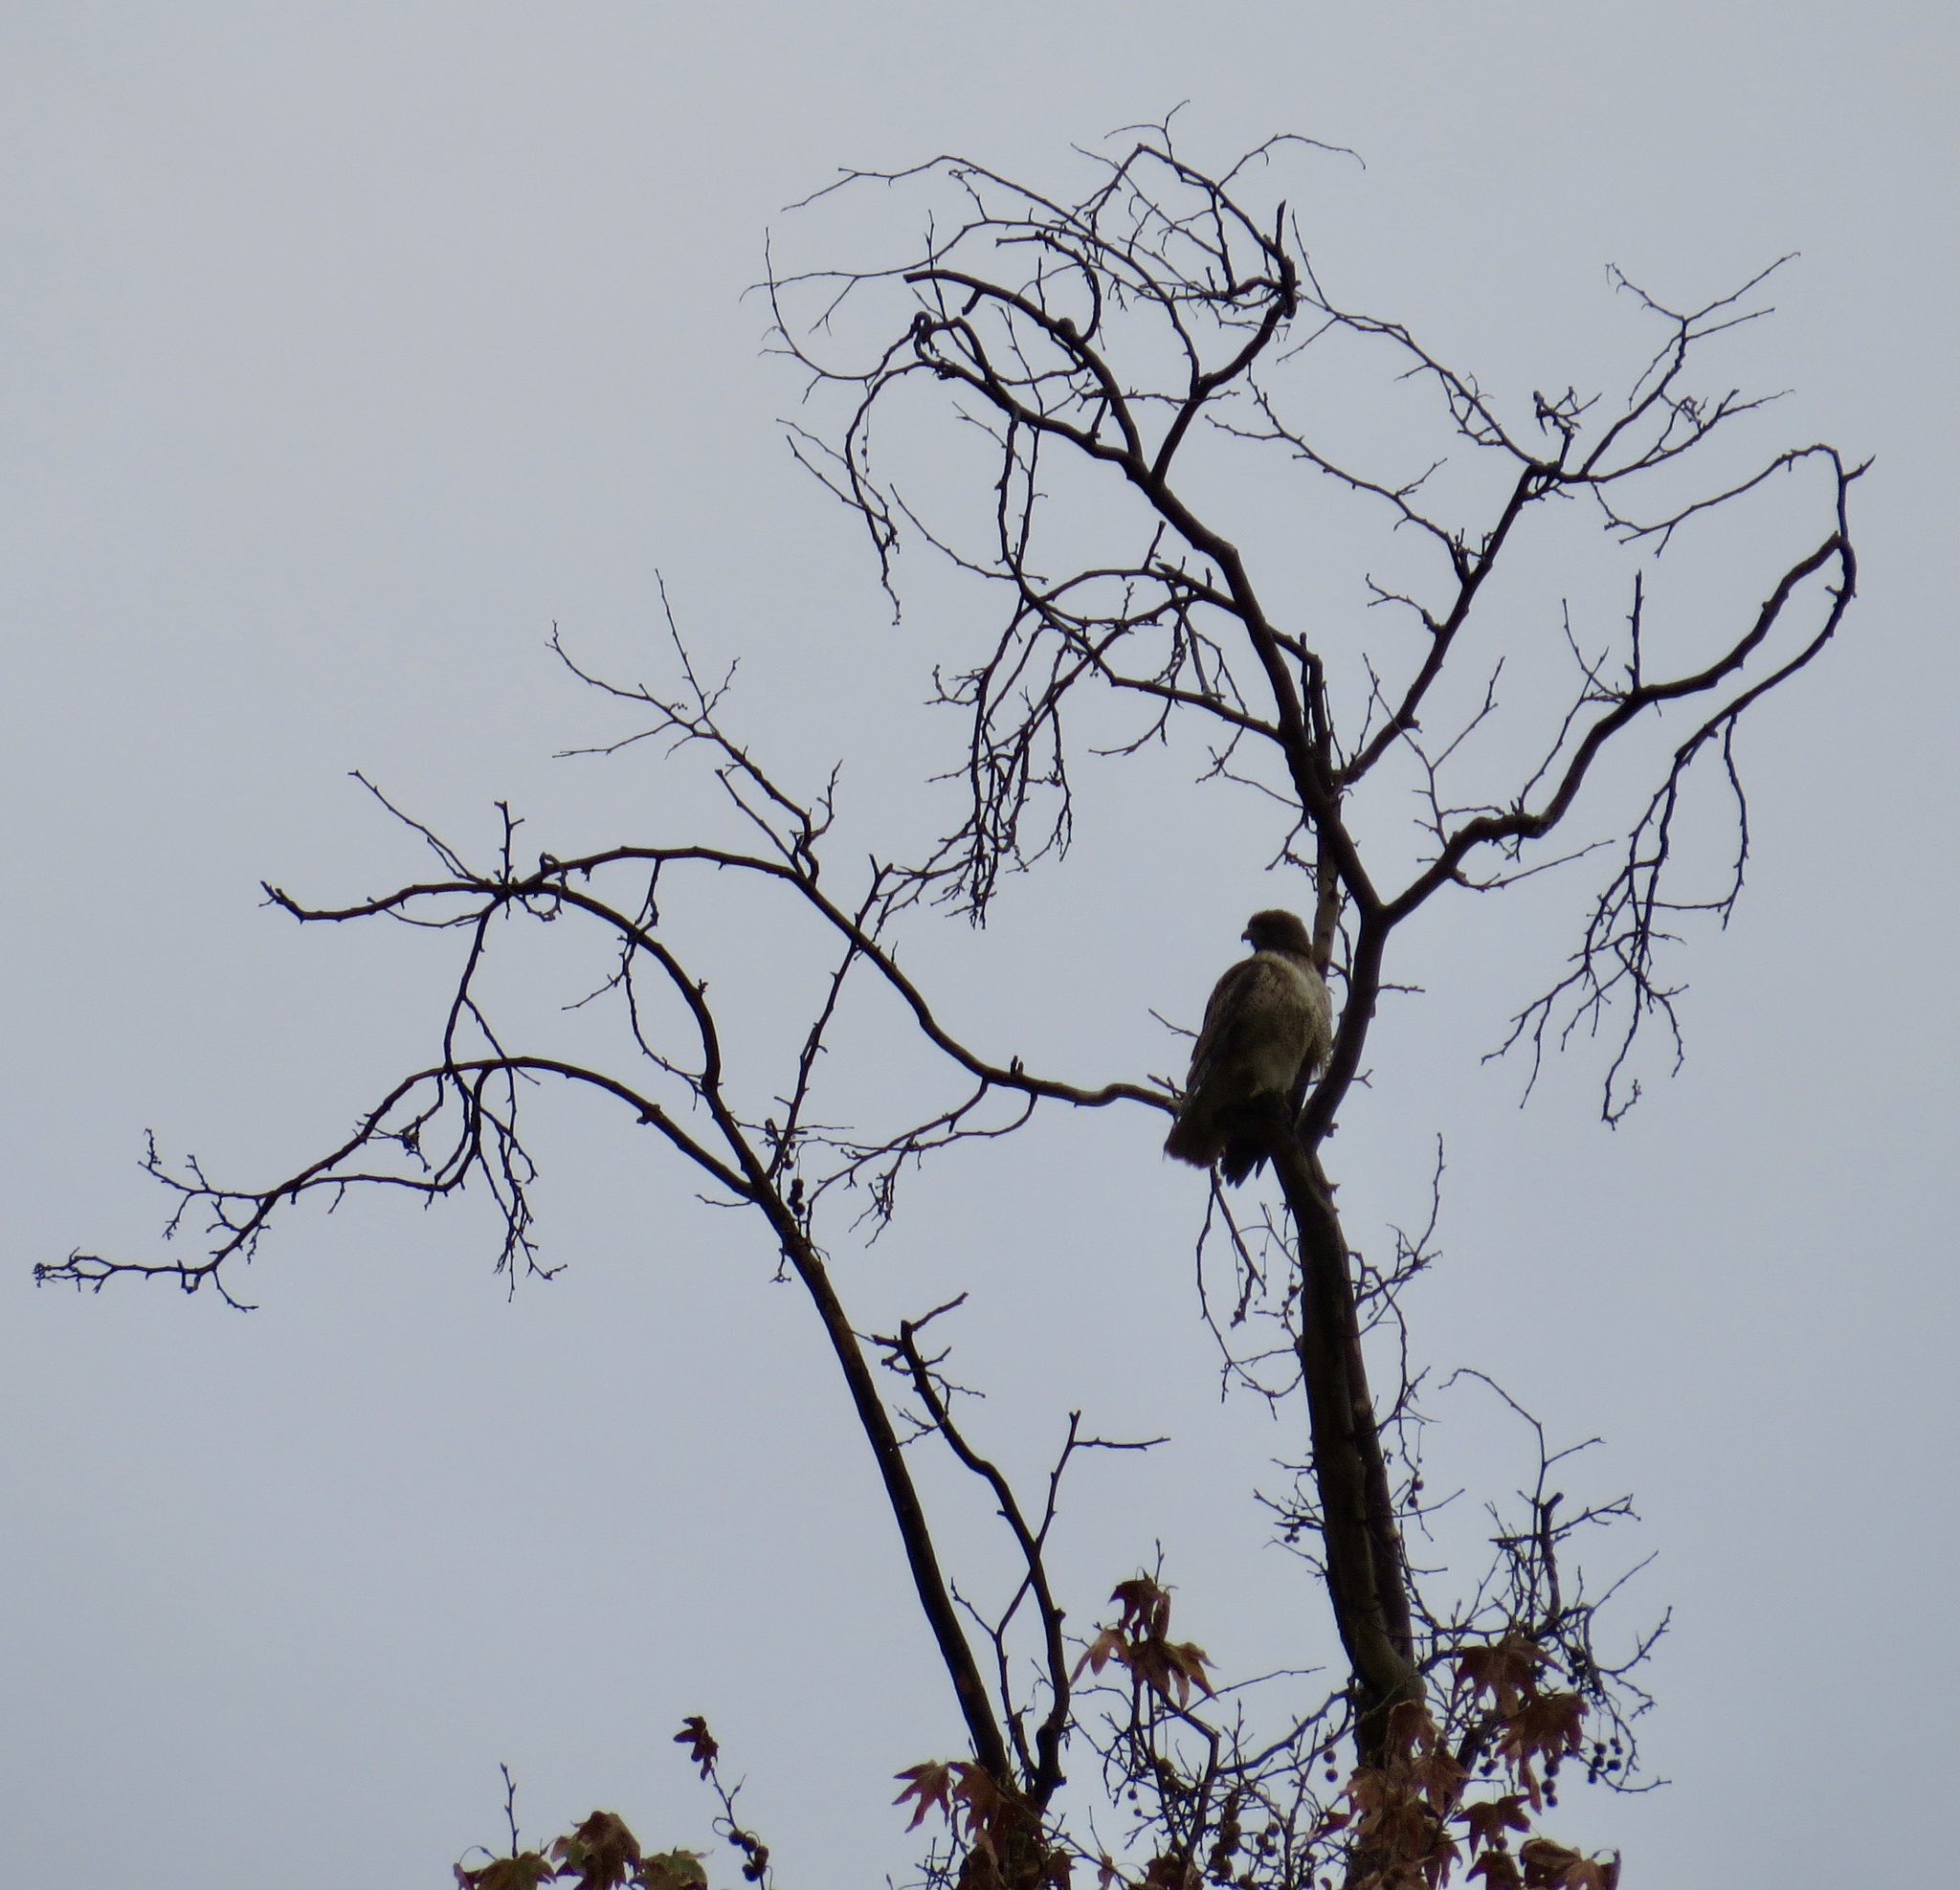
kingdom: Animalia
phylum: Chordata
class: Aves
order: Accipitriformes
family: Accipitridae
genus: Buteo
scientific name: Buteo jamaicensis
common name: Red-tailed hawk
